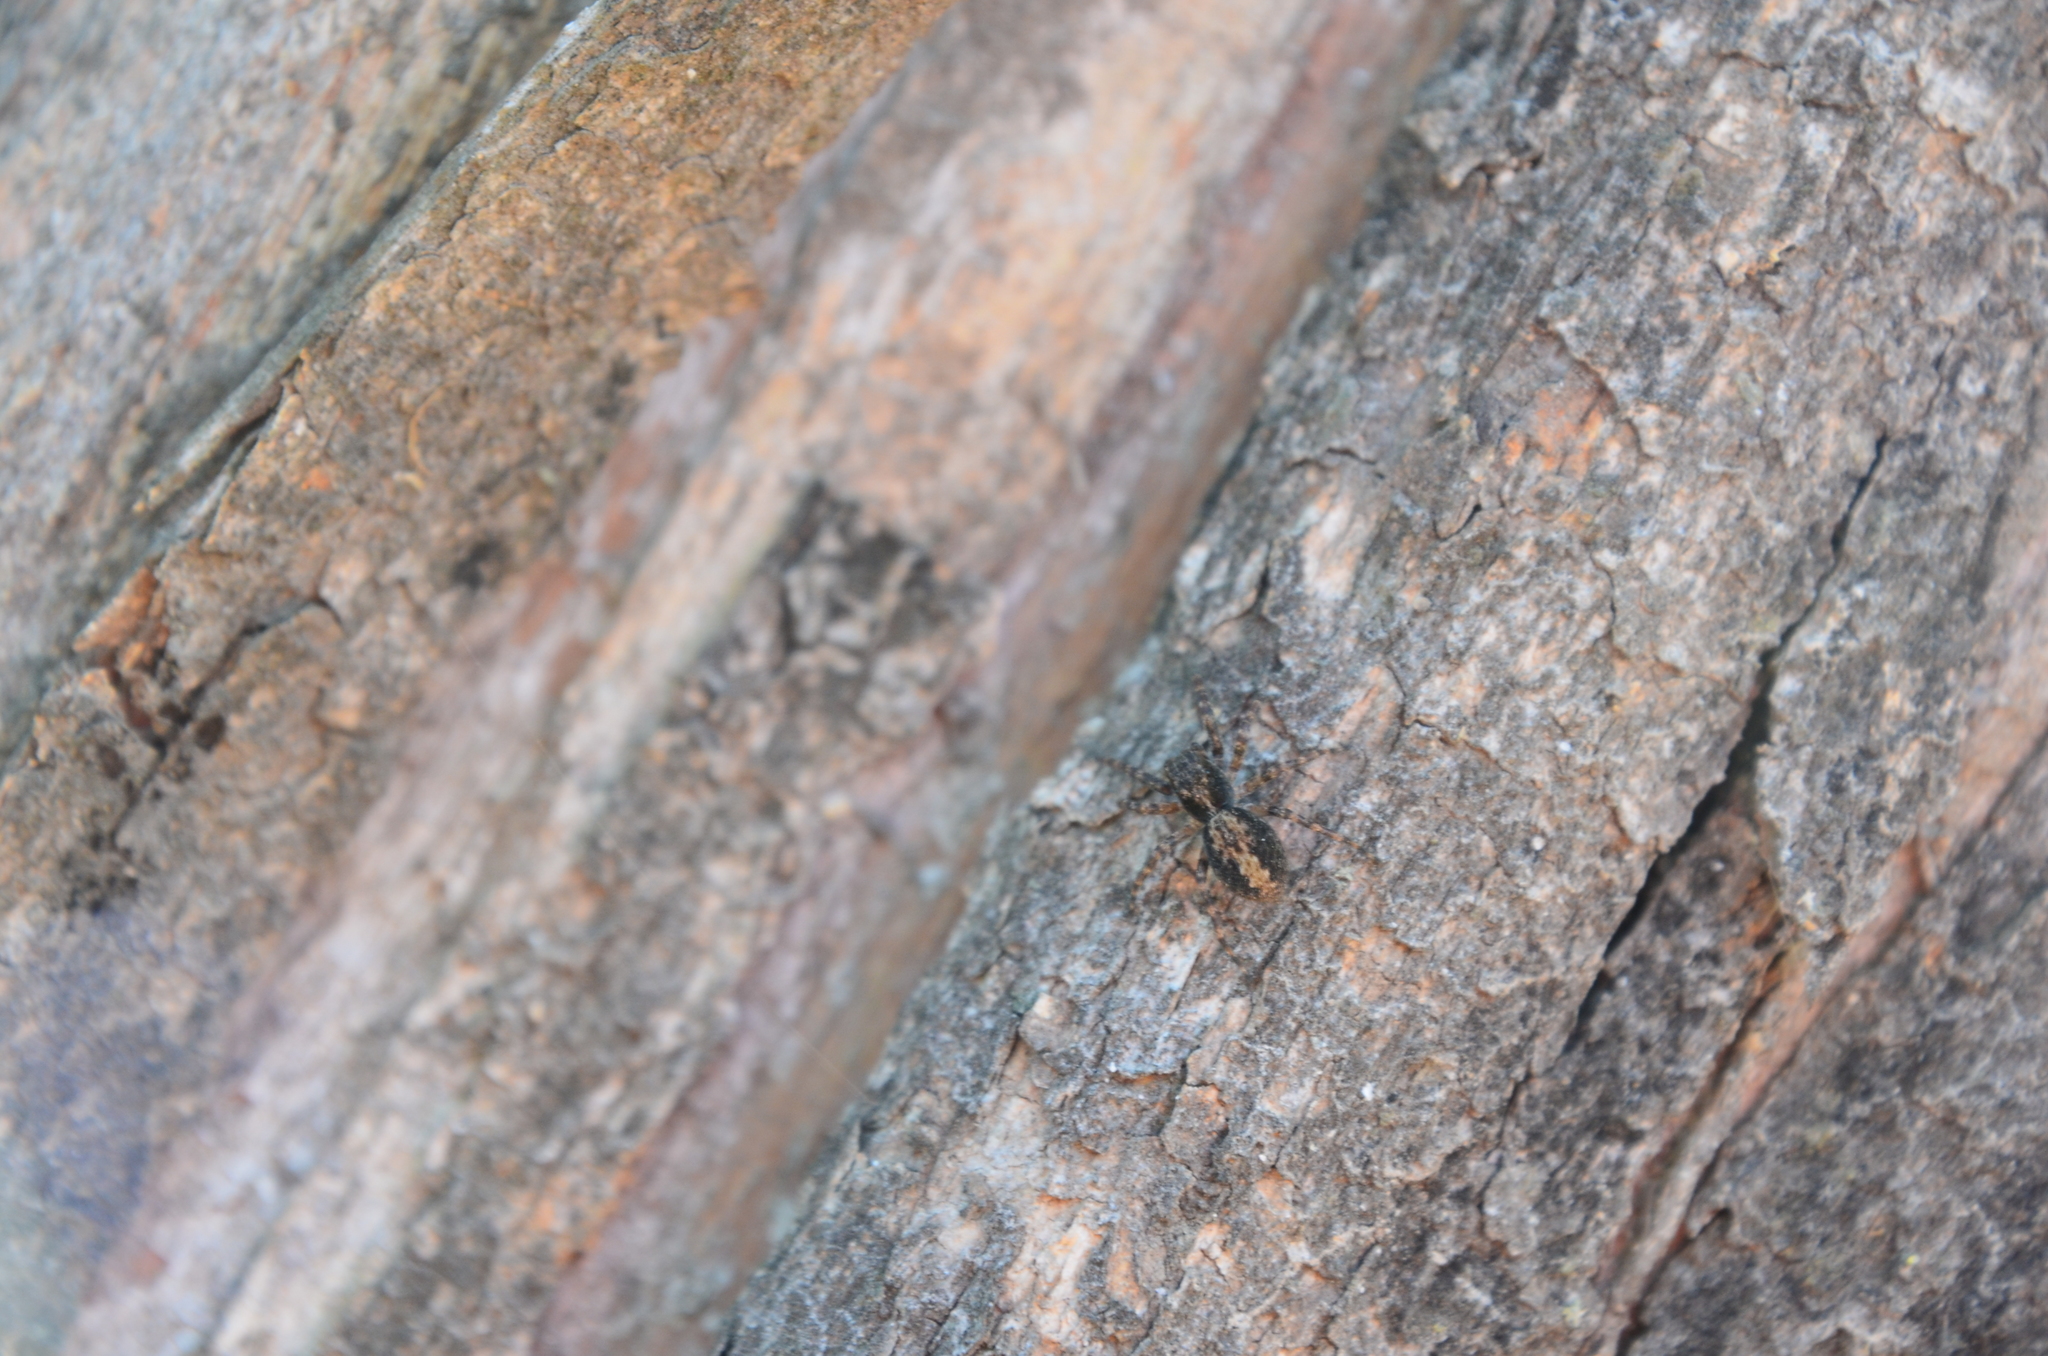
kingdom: Animalia
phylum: Arthropoda
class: Arachnida
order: Araneae
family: Salticidae
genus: Titanattus
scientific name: Titanattus andinus
